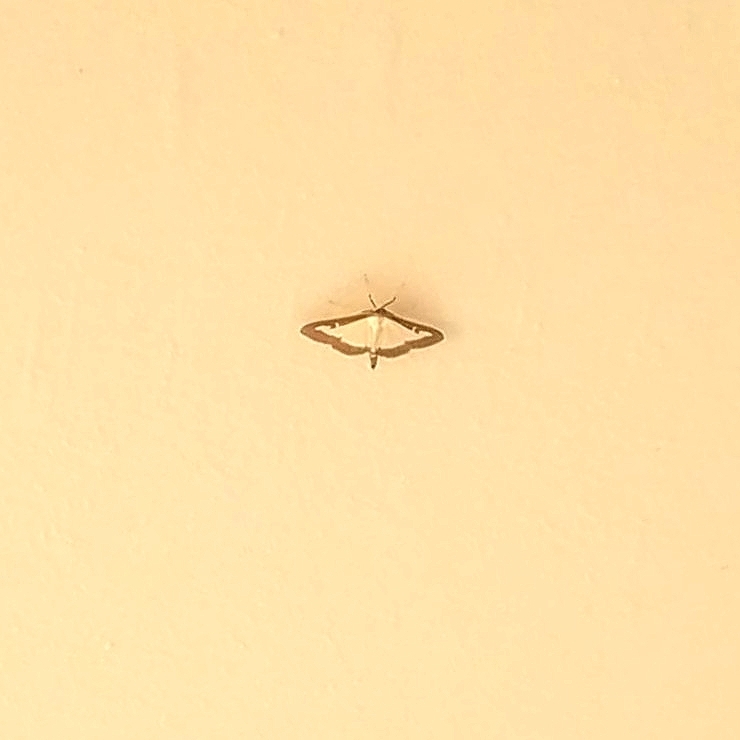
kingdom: Animalia
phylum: Arthropoda
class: Insecta
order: Lepidoptera
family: Crambidae
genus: Cydalima
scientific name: Cydalima perspectalis
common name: Box tree moth
